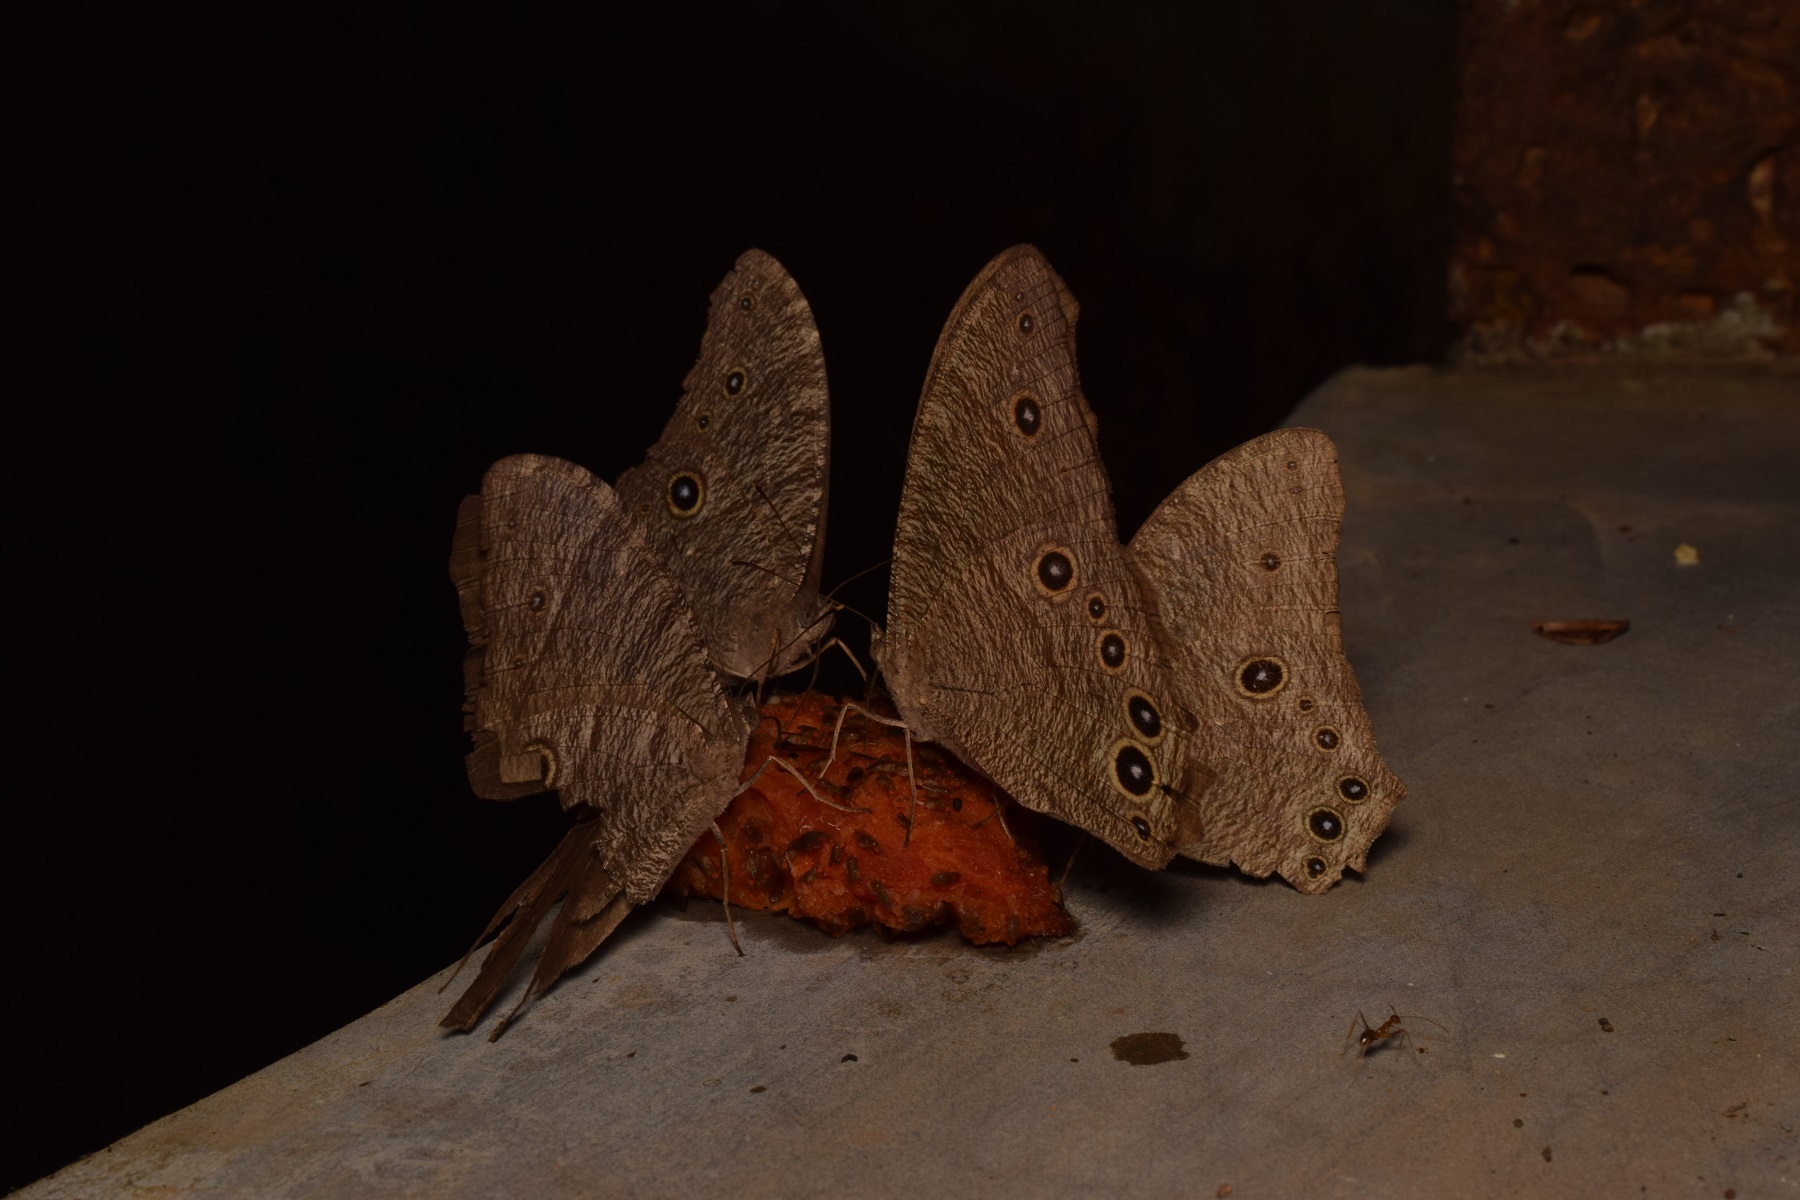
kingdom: Animalia
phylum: Arthropoda
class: Insecta
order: Lepidoptera
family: Nymphalidae
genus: Melanitis
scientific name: Melanitis leda
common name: Twilight brown
